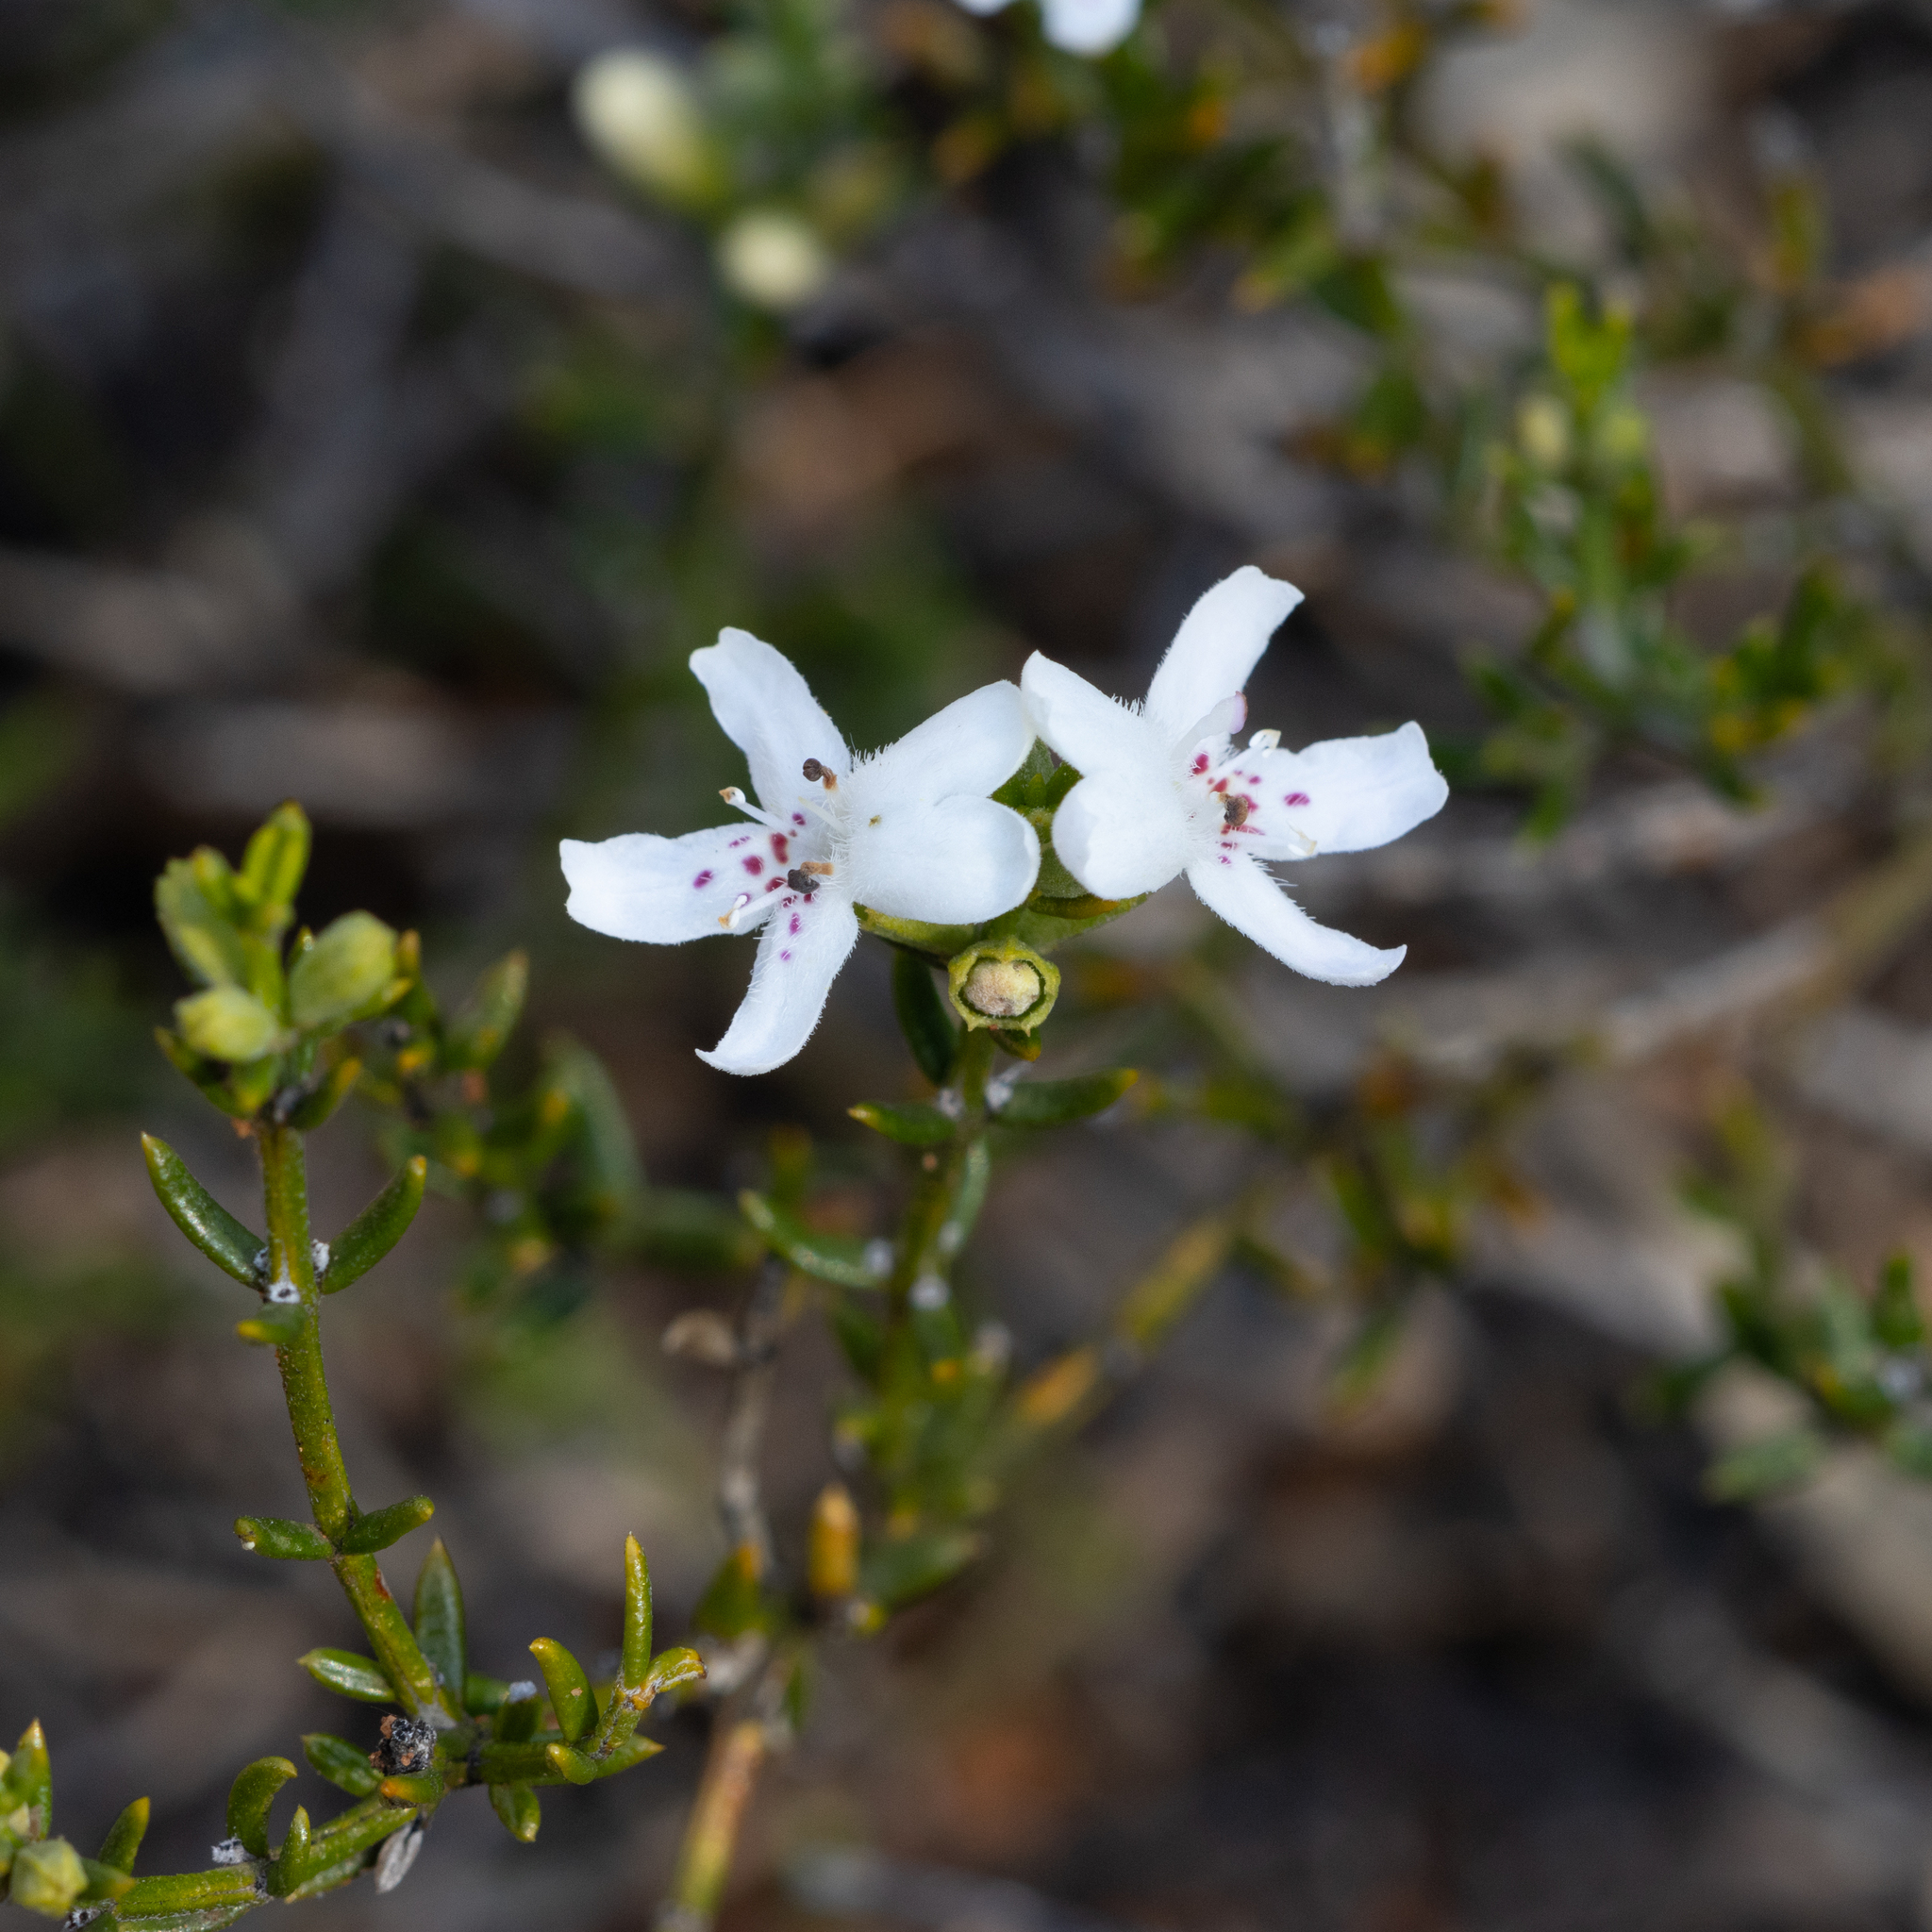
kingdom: Plantae
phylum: Tracheophyta
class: Magnoliopsida
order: Lamiales
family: Lamiaceae
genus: Westringia
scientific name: Westringia rigida
